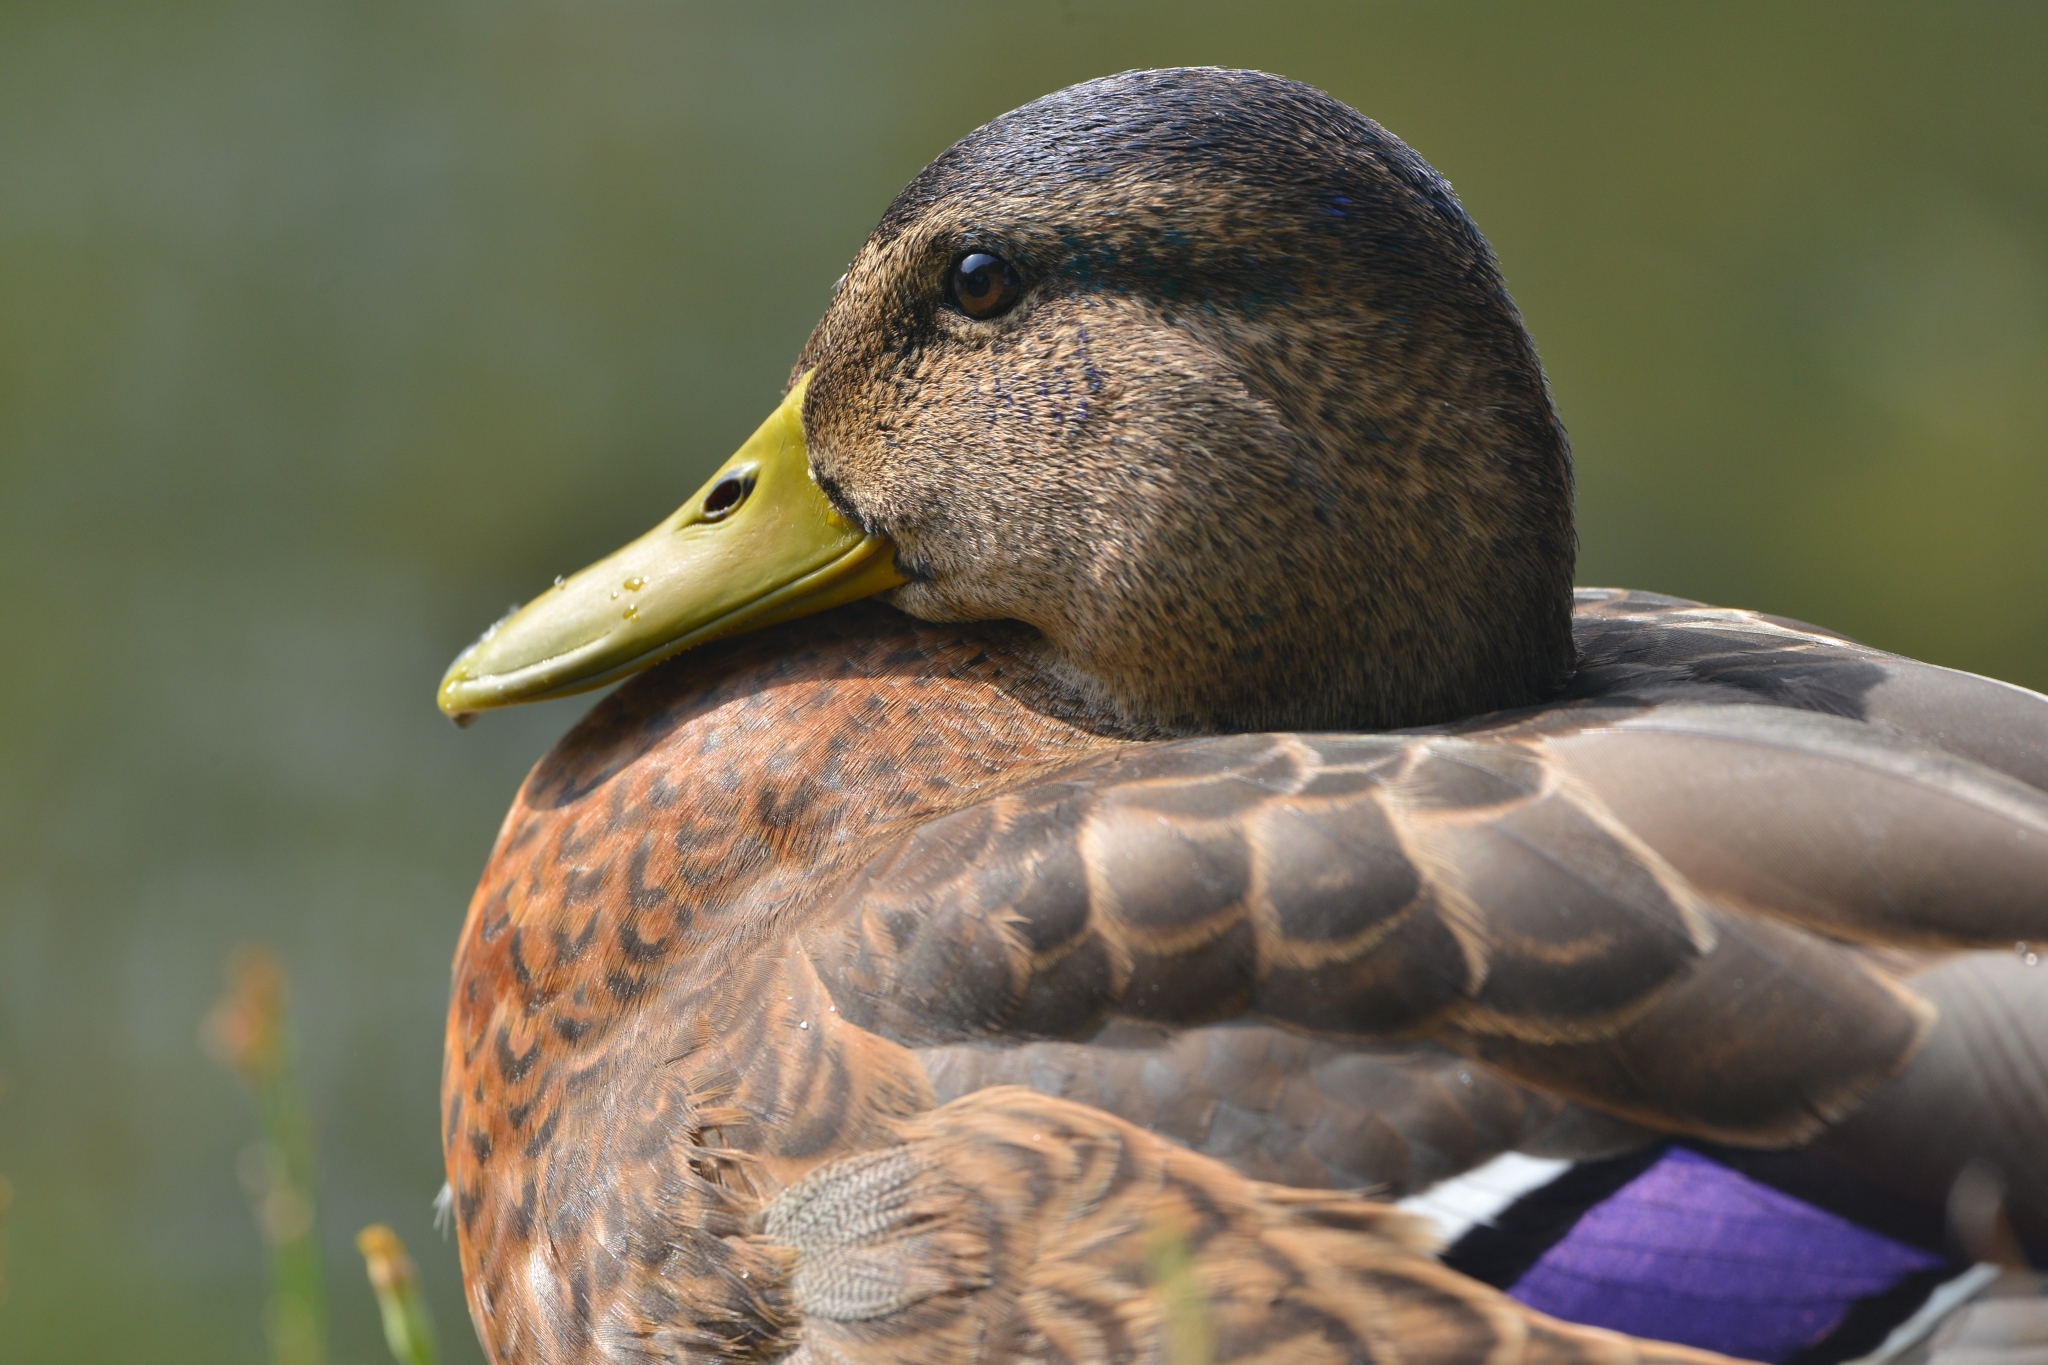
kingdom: Animalia
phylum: Chordata
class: Aves
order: Anseriformes
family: Anatidae
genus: Anas
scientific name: Anas platyrhynchos
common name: Mallard
